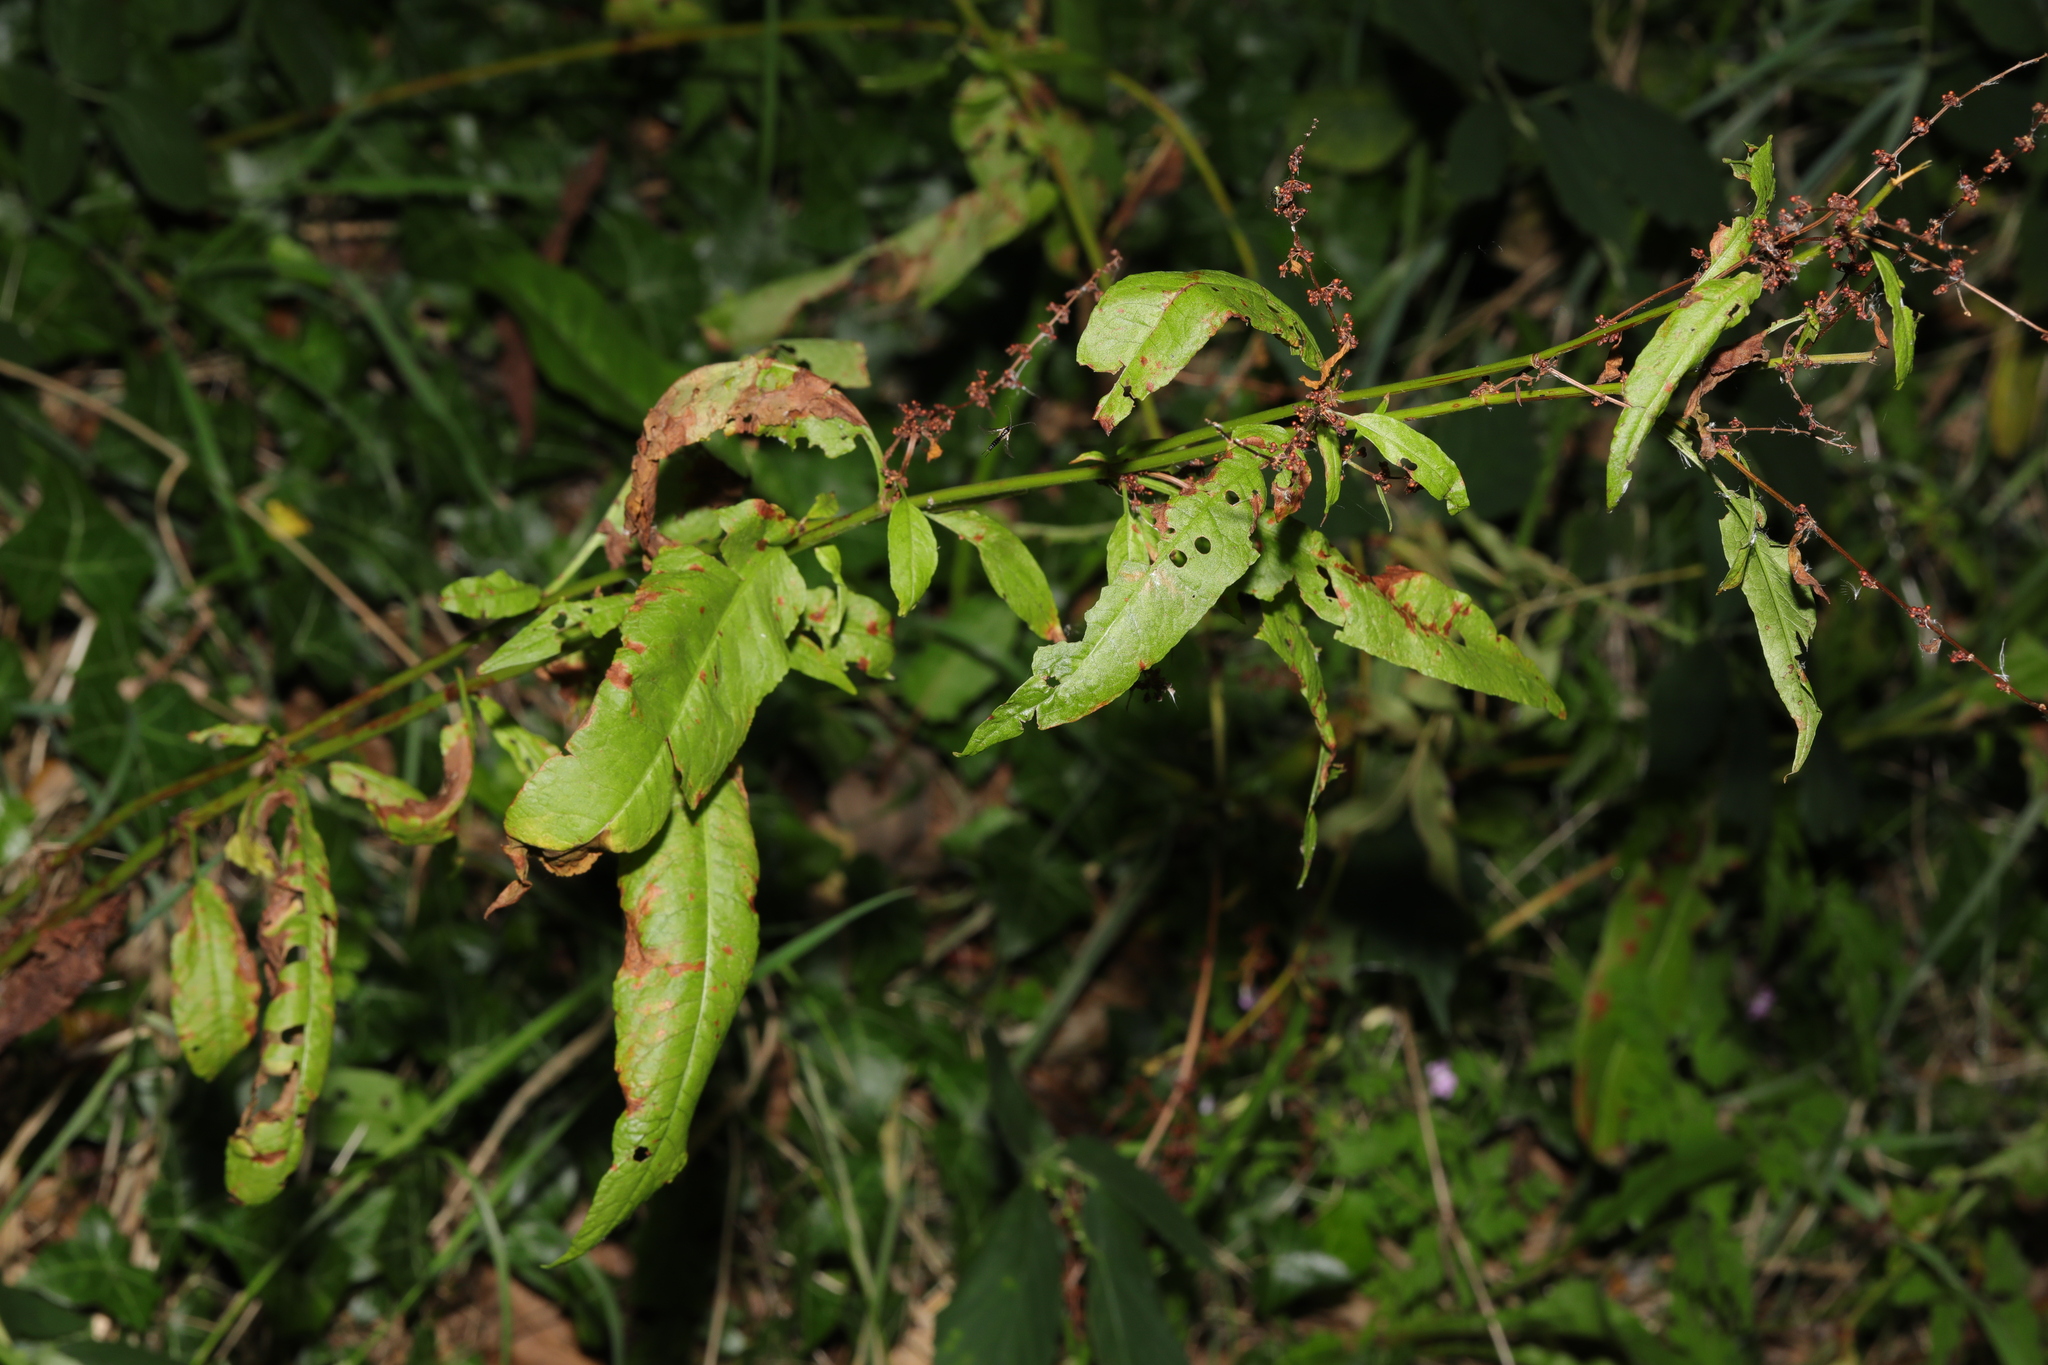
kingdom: Plantae
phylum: Tracheophyta
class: Magnoliopsida
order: Caryophyllales
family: Polygonaceae
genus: Rumex
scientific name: Rumex sanguineus
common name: Wood dock
